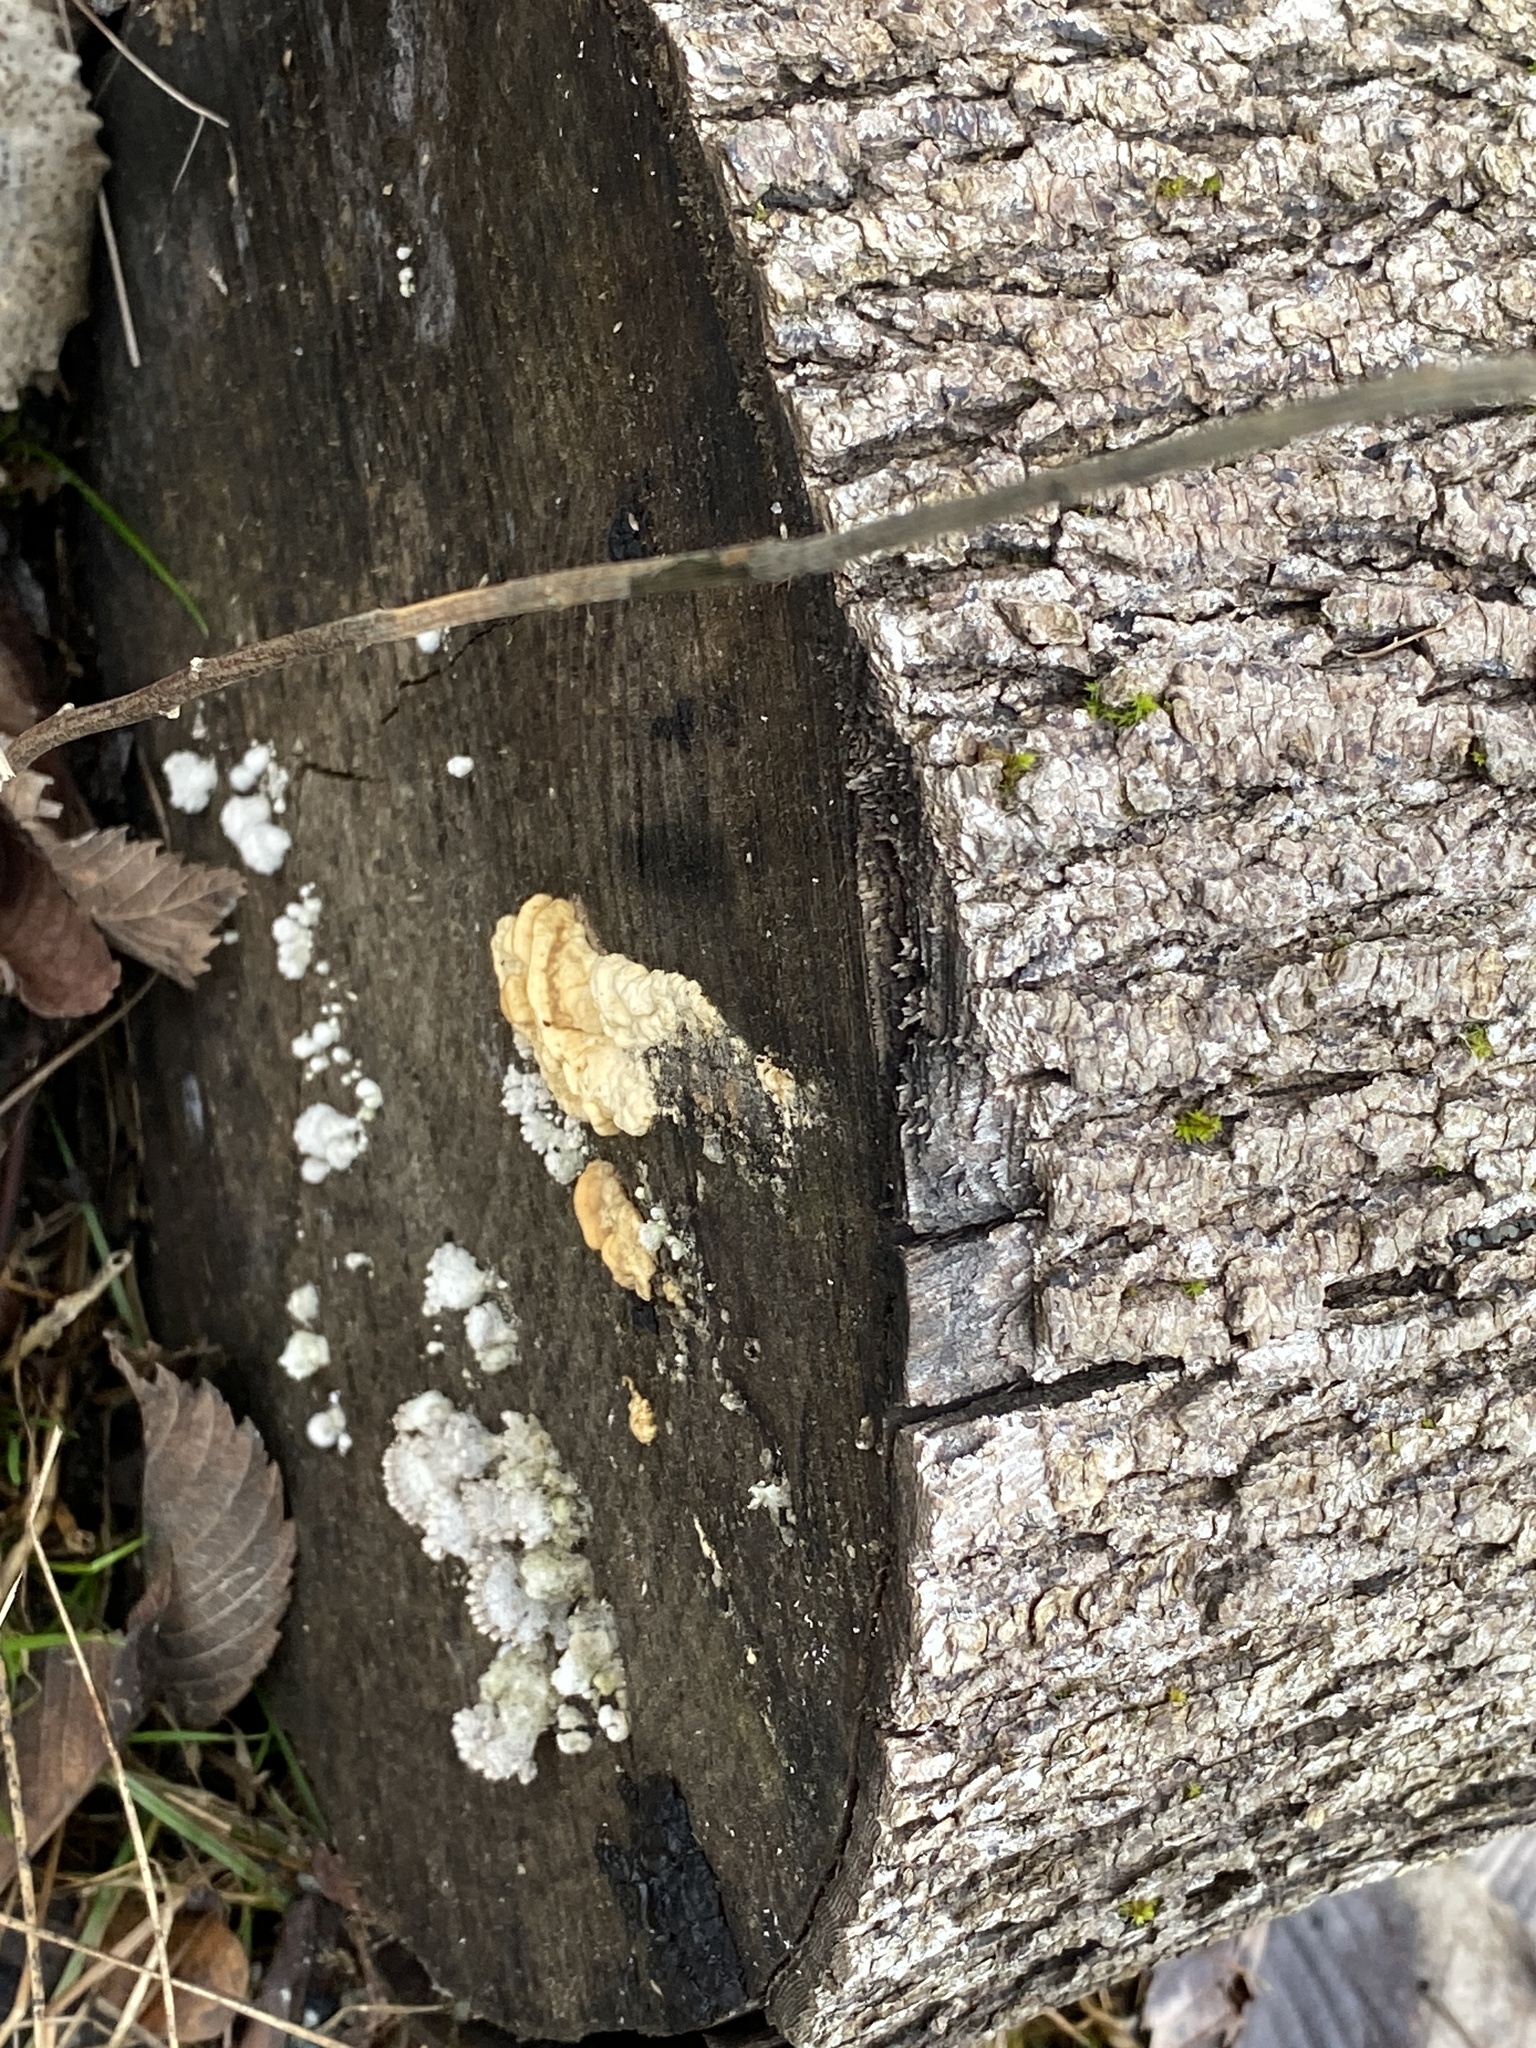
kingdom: Fungi
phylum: Basidiomycota
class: Agaricomycetes
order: Agaricales
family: Schizophyllaceae
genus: Schizophyllum
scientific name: Schizophyllum commune
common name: Common porecrust
